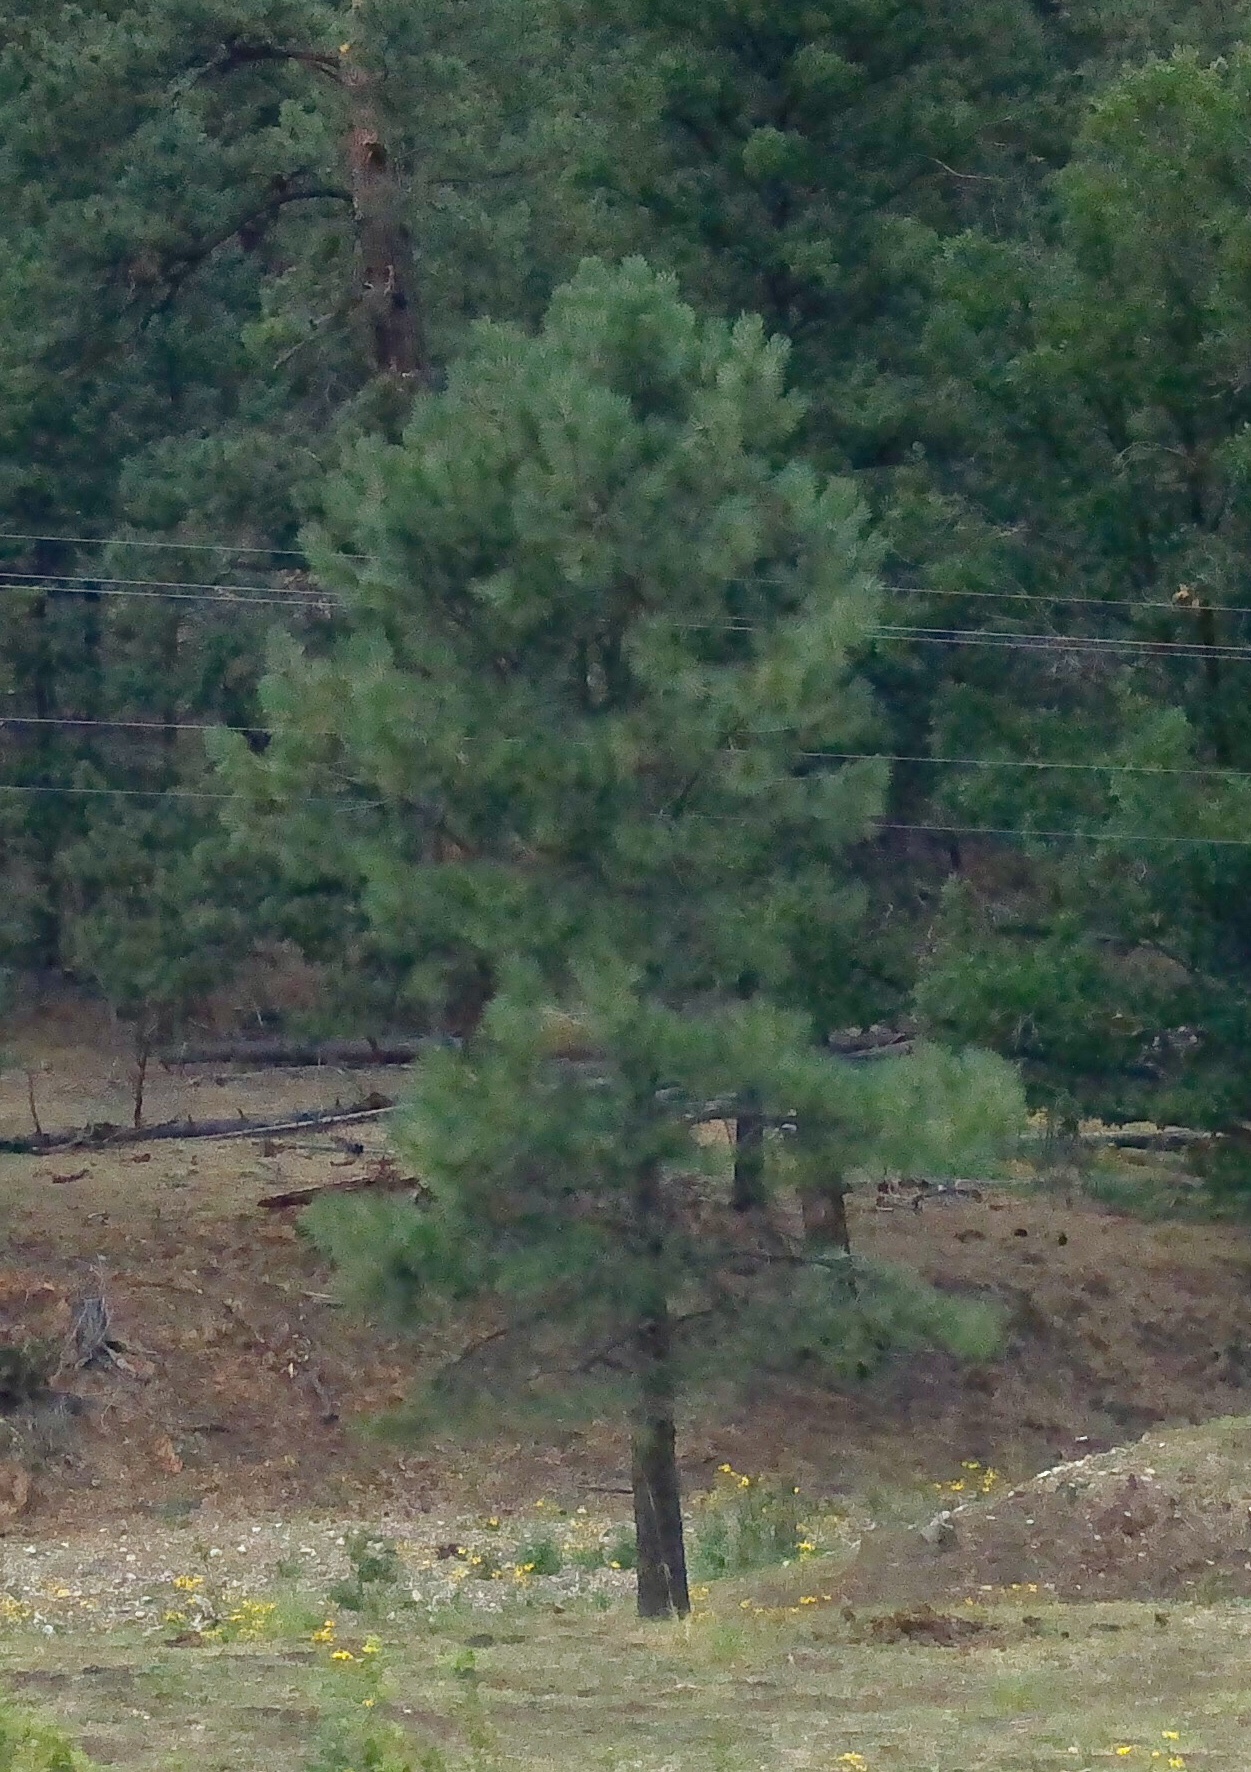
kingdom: Plantae
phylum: Tracheophyta
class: Pinopsida
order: Pinales
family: Pinaceae
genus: Pinus
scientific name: Pinus ponderosa
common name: Western yellow-pine
